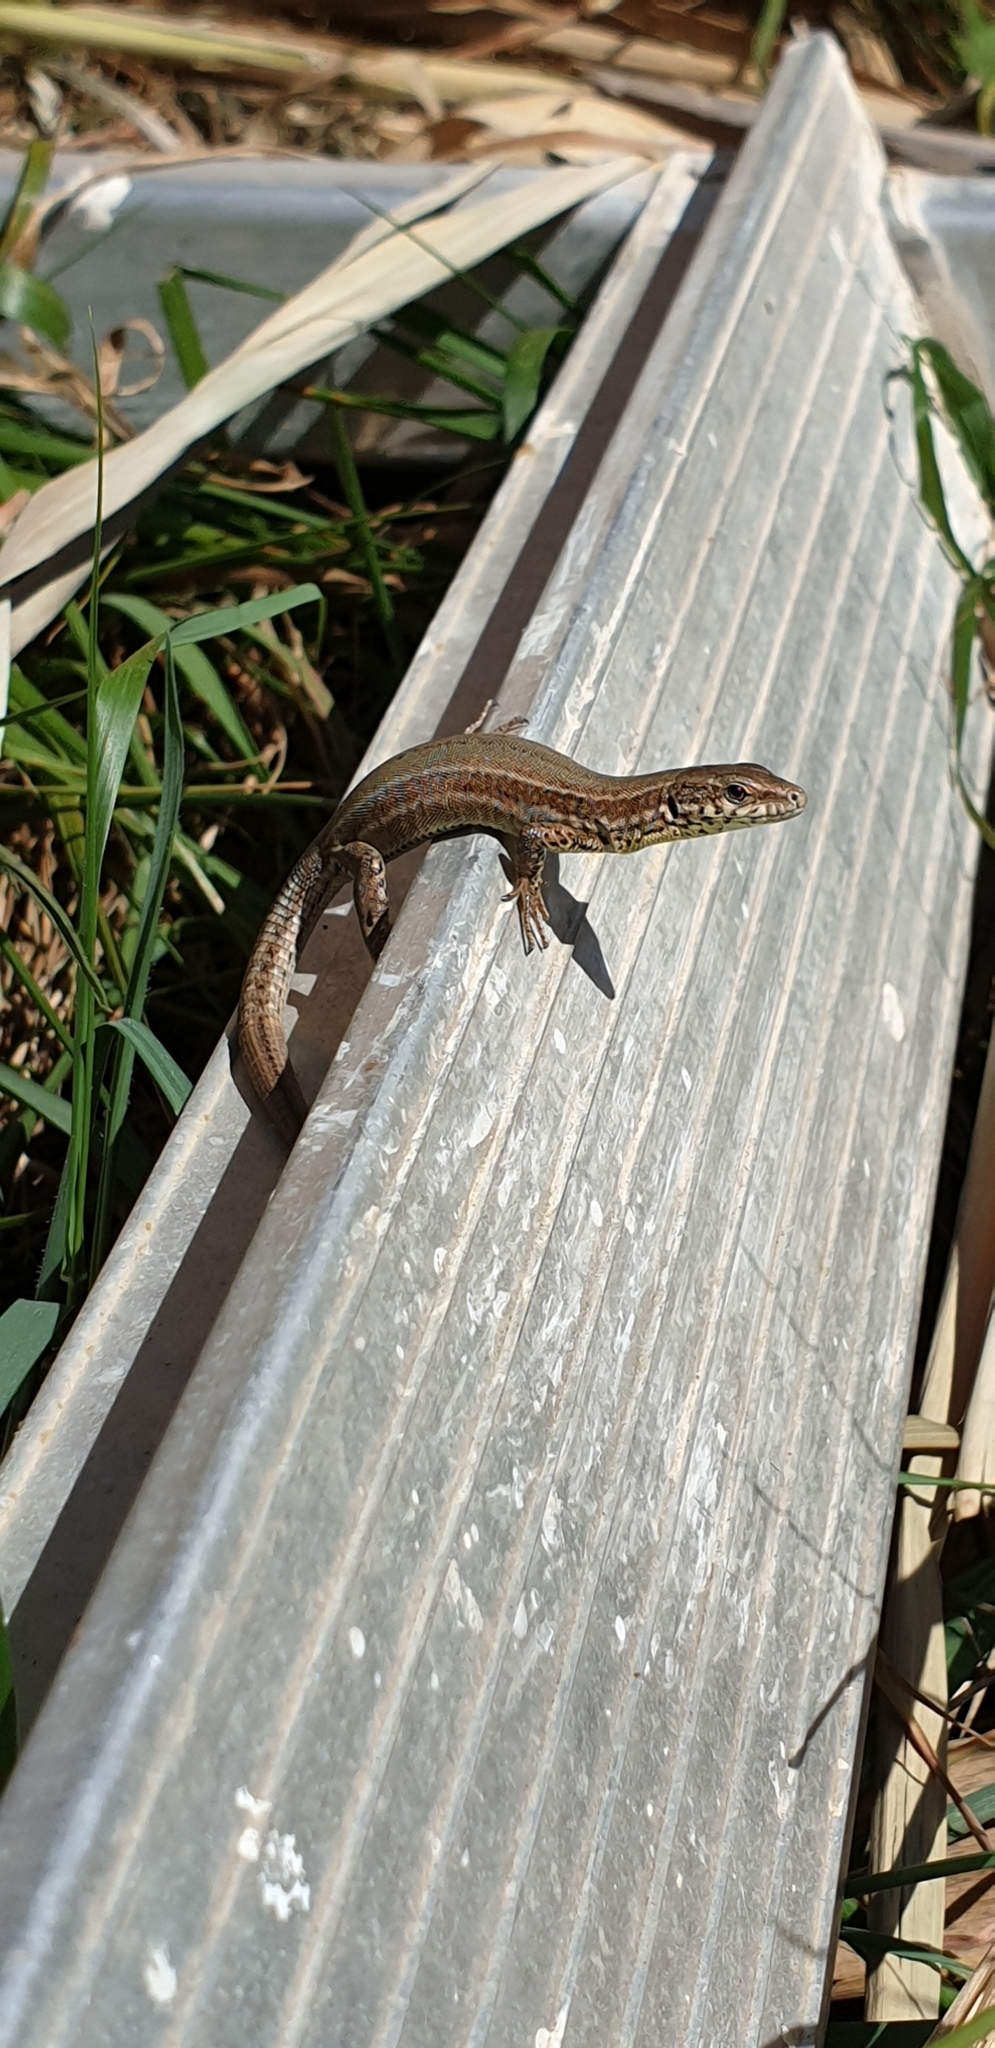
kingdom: Animalia
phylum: Chordata
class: Squamata
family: Lacertidae
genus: Podarcis
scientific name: Podarcis liolepis
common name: Catalonian wall lizard
